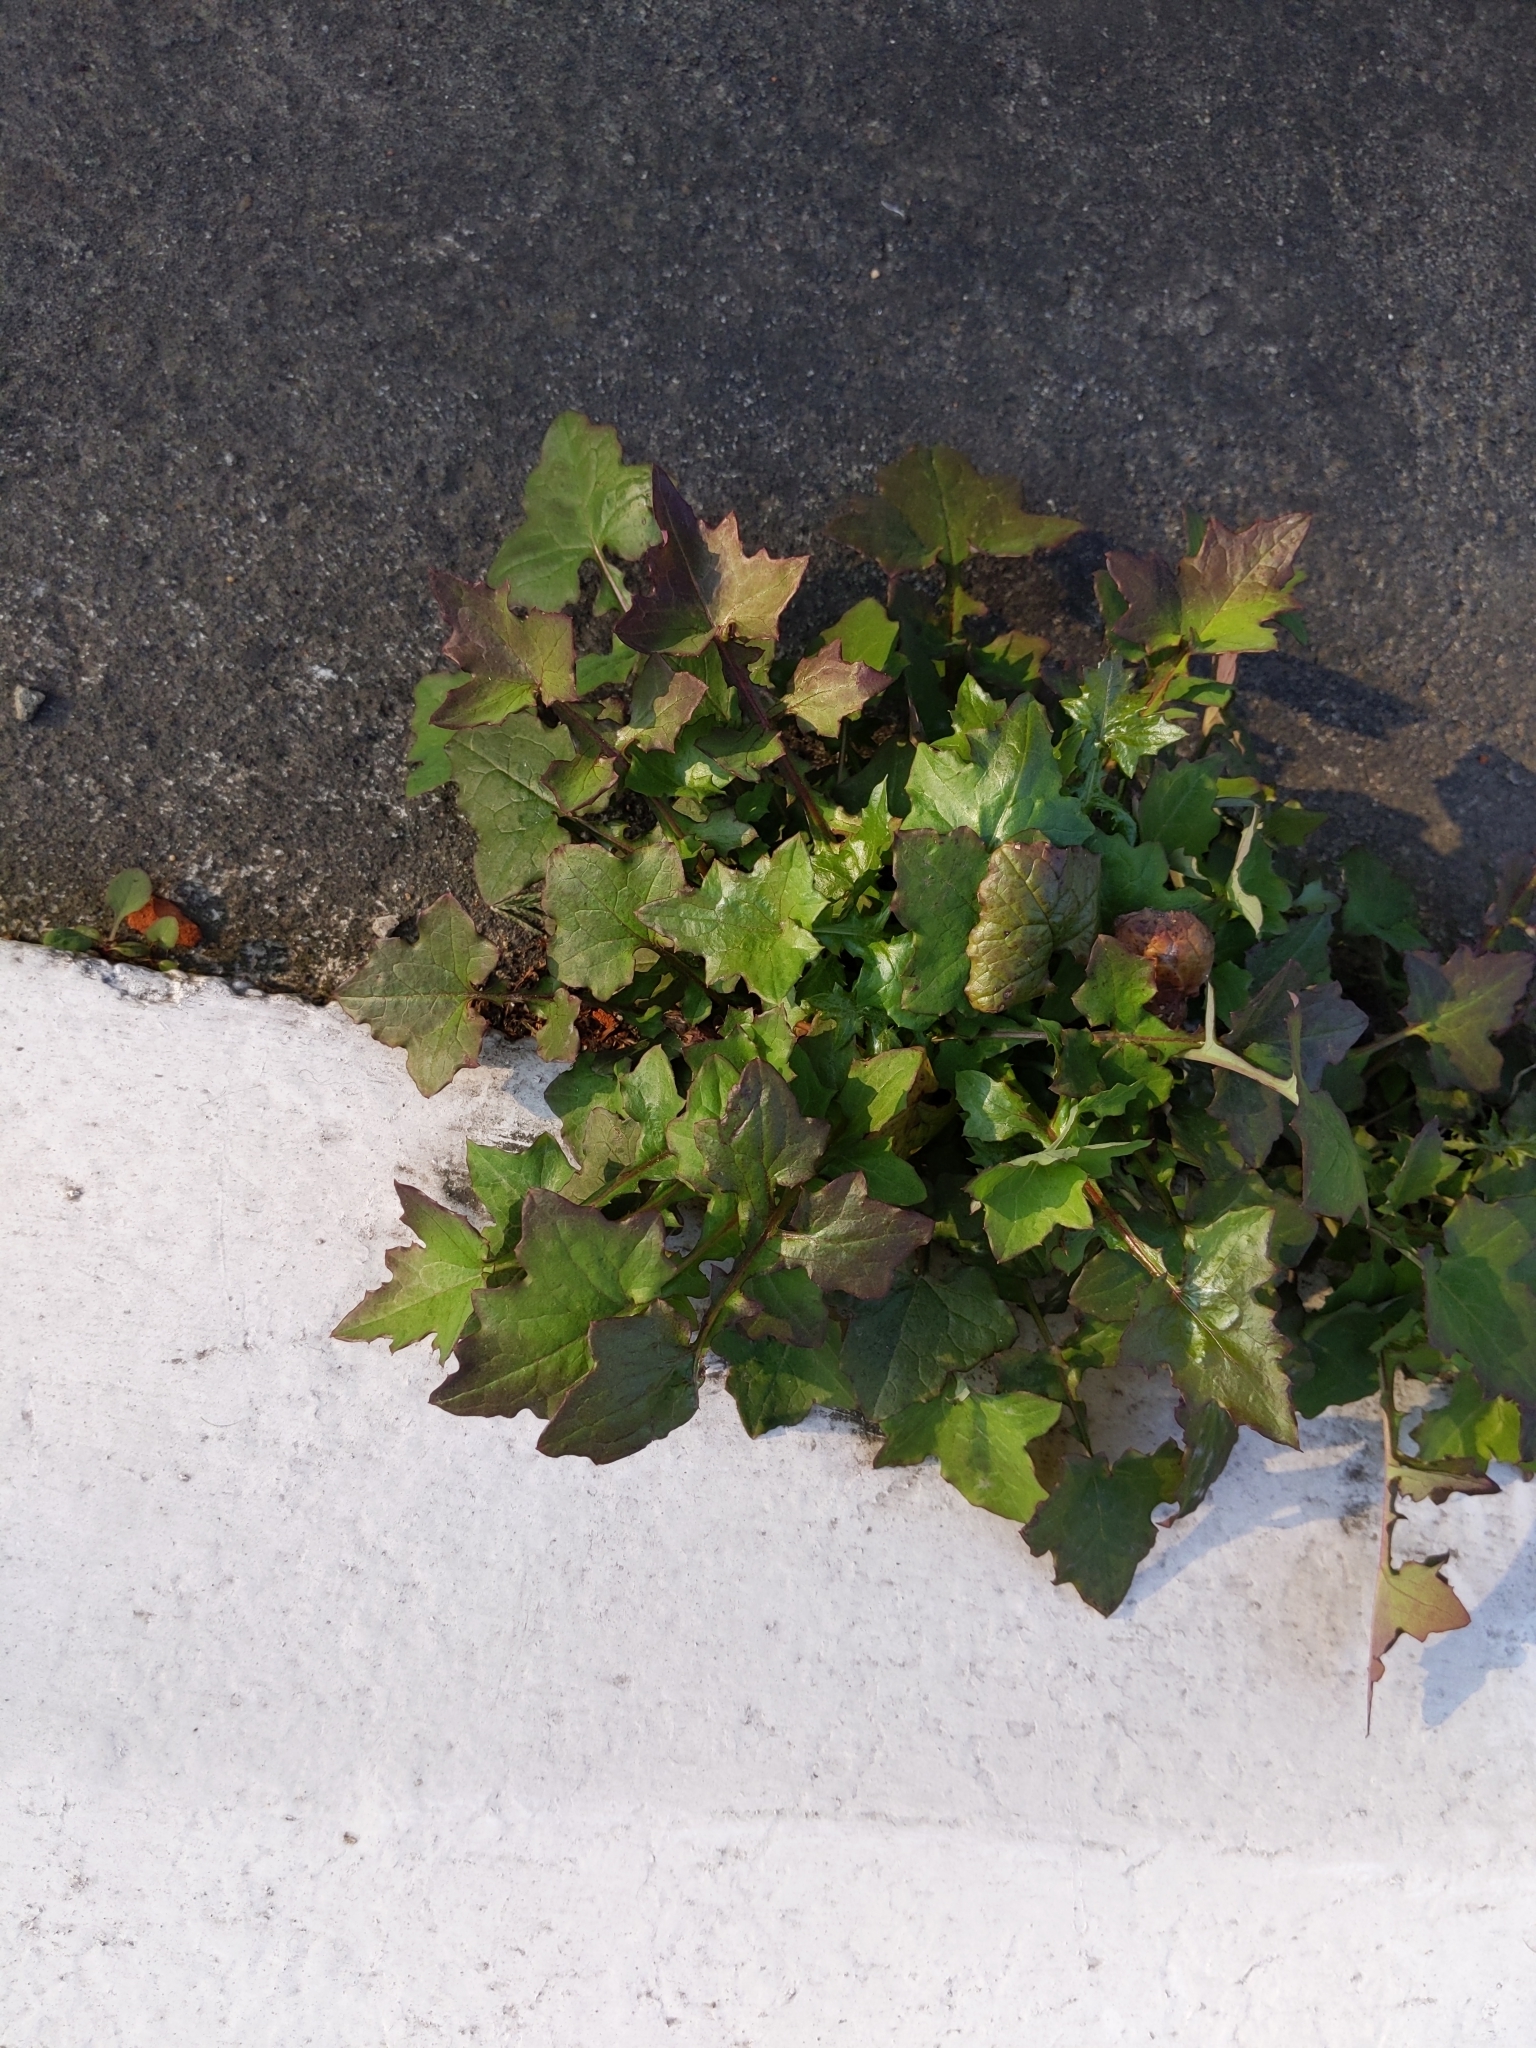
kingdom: Plantae
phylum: Tracheophyta
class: Magnoliopsida
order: Asterales
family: Asteraceae
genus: Mycelis
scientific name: Mycelis muralis
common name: Wall lettuce
